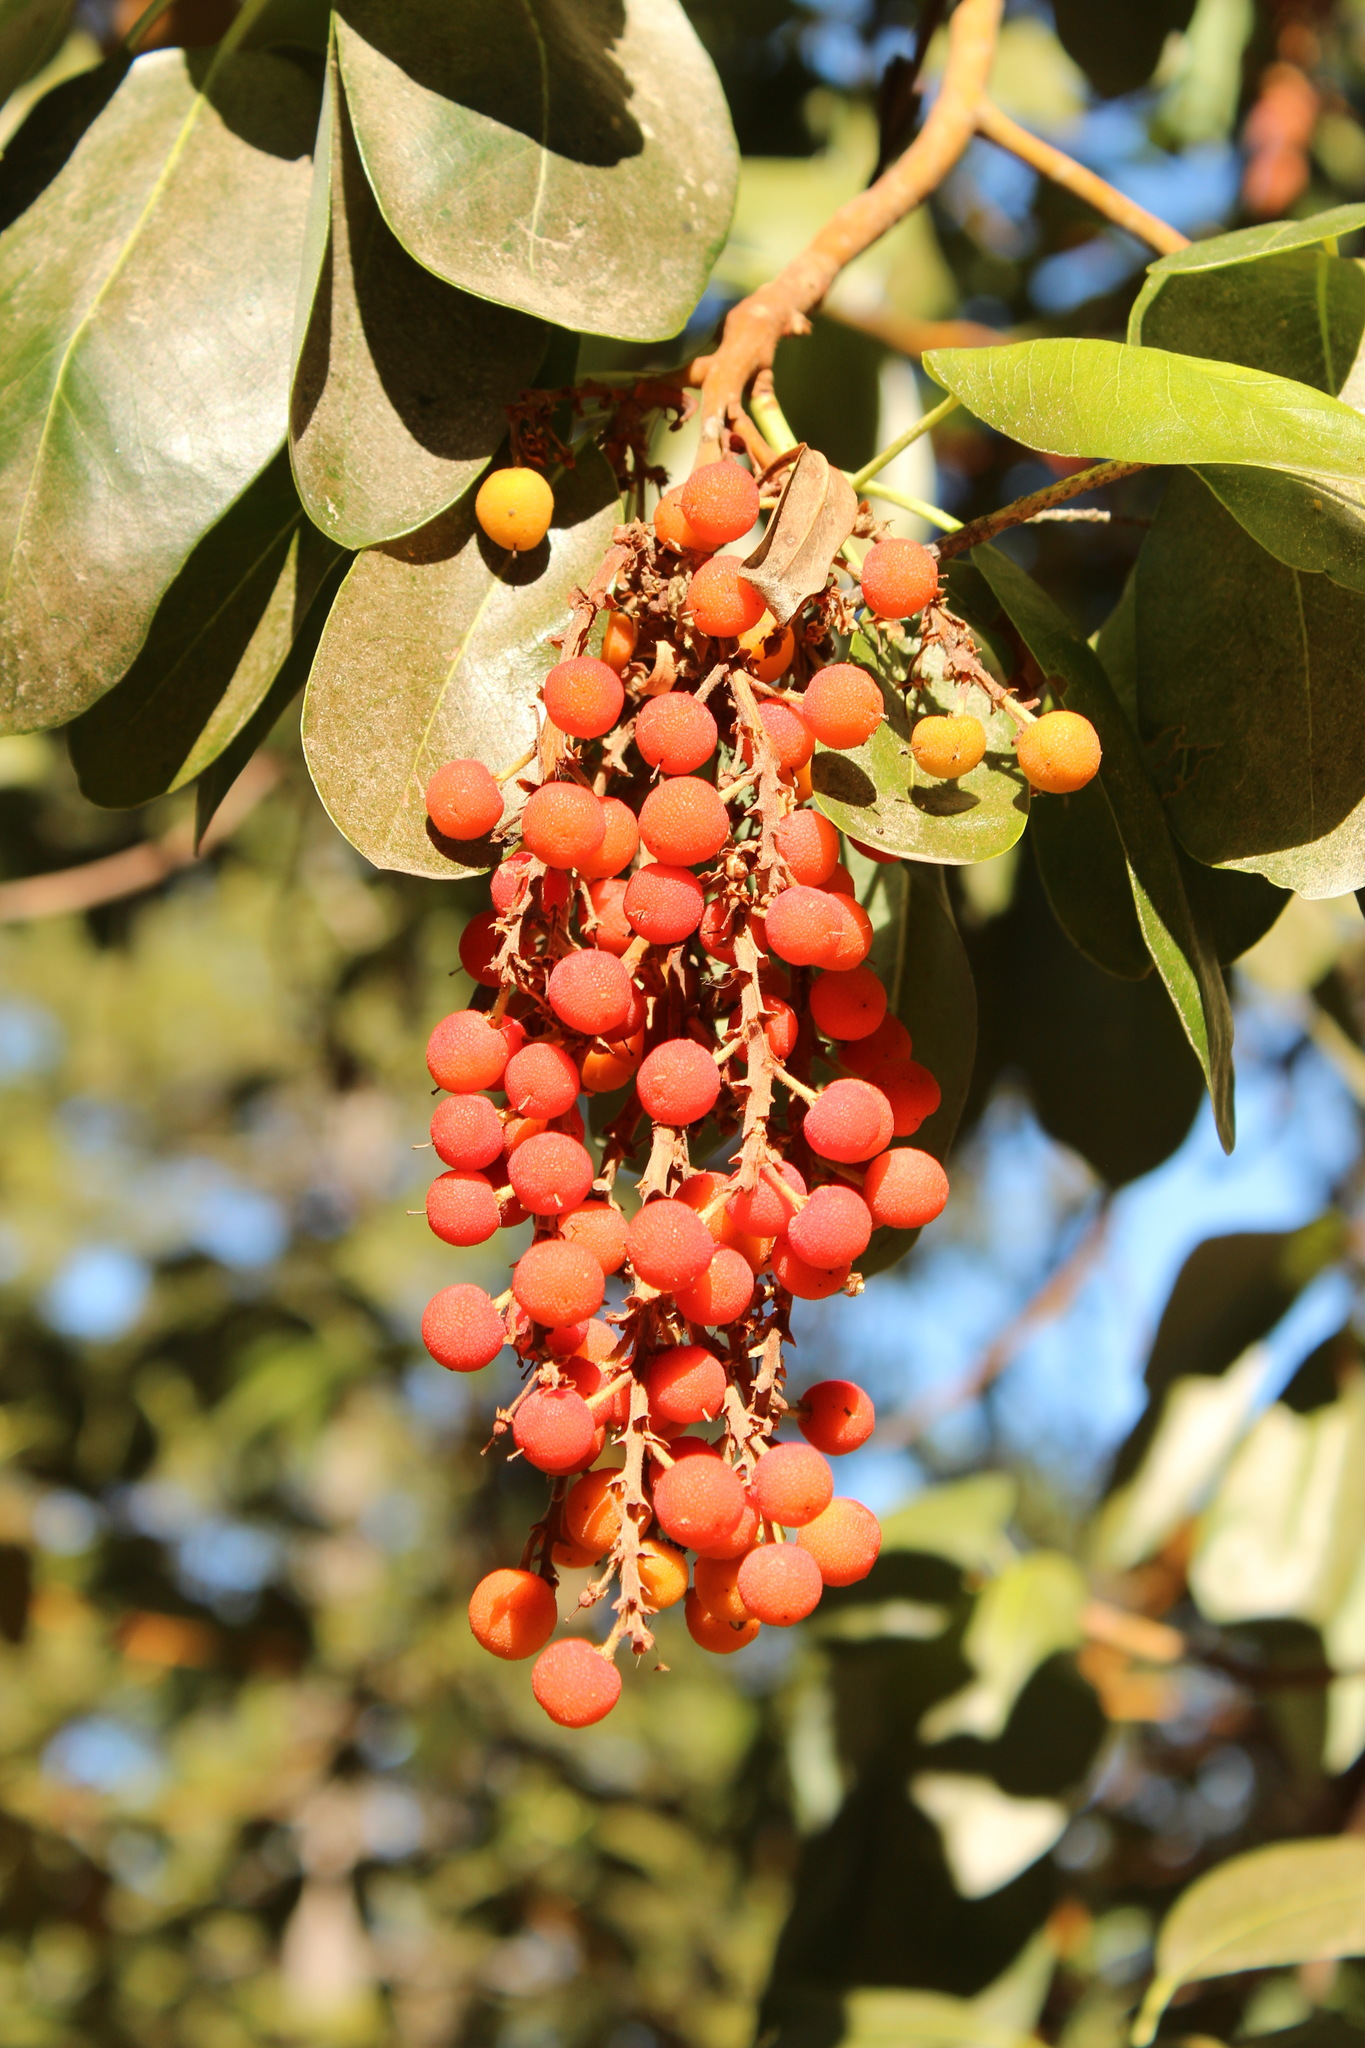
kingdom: Plantae
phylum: Tracheophyta
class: Magnoliopsida
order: Ericales
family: Ericaceae
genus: Arbutus
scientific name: Arbutus menziesii
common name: Pacific madrone
